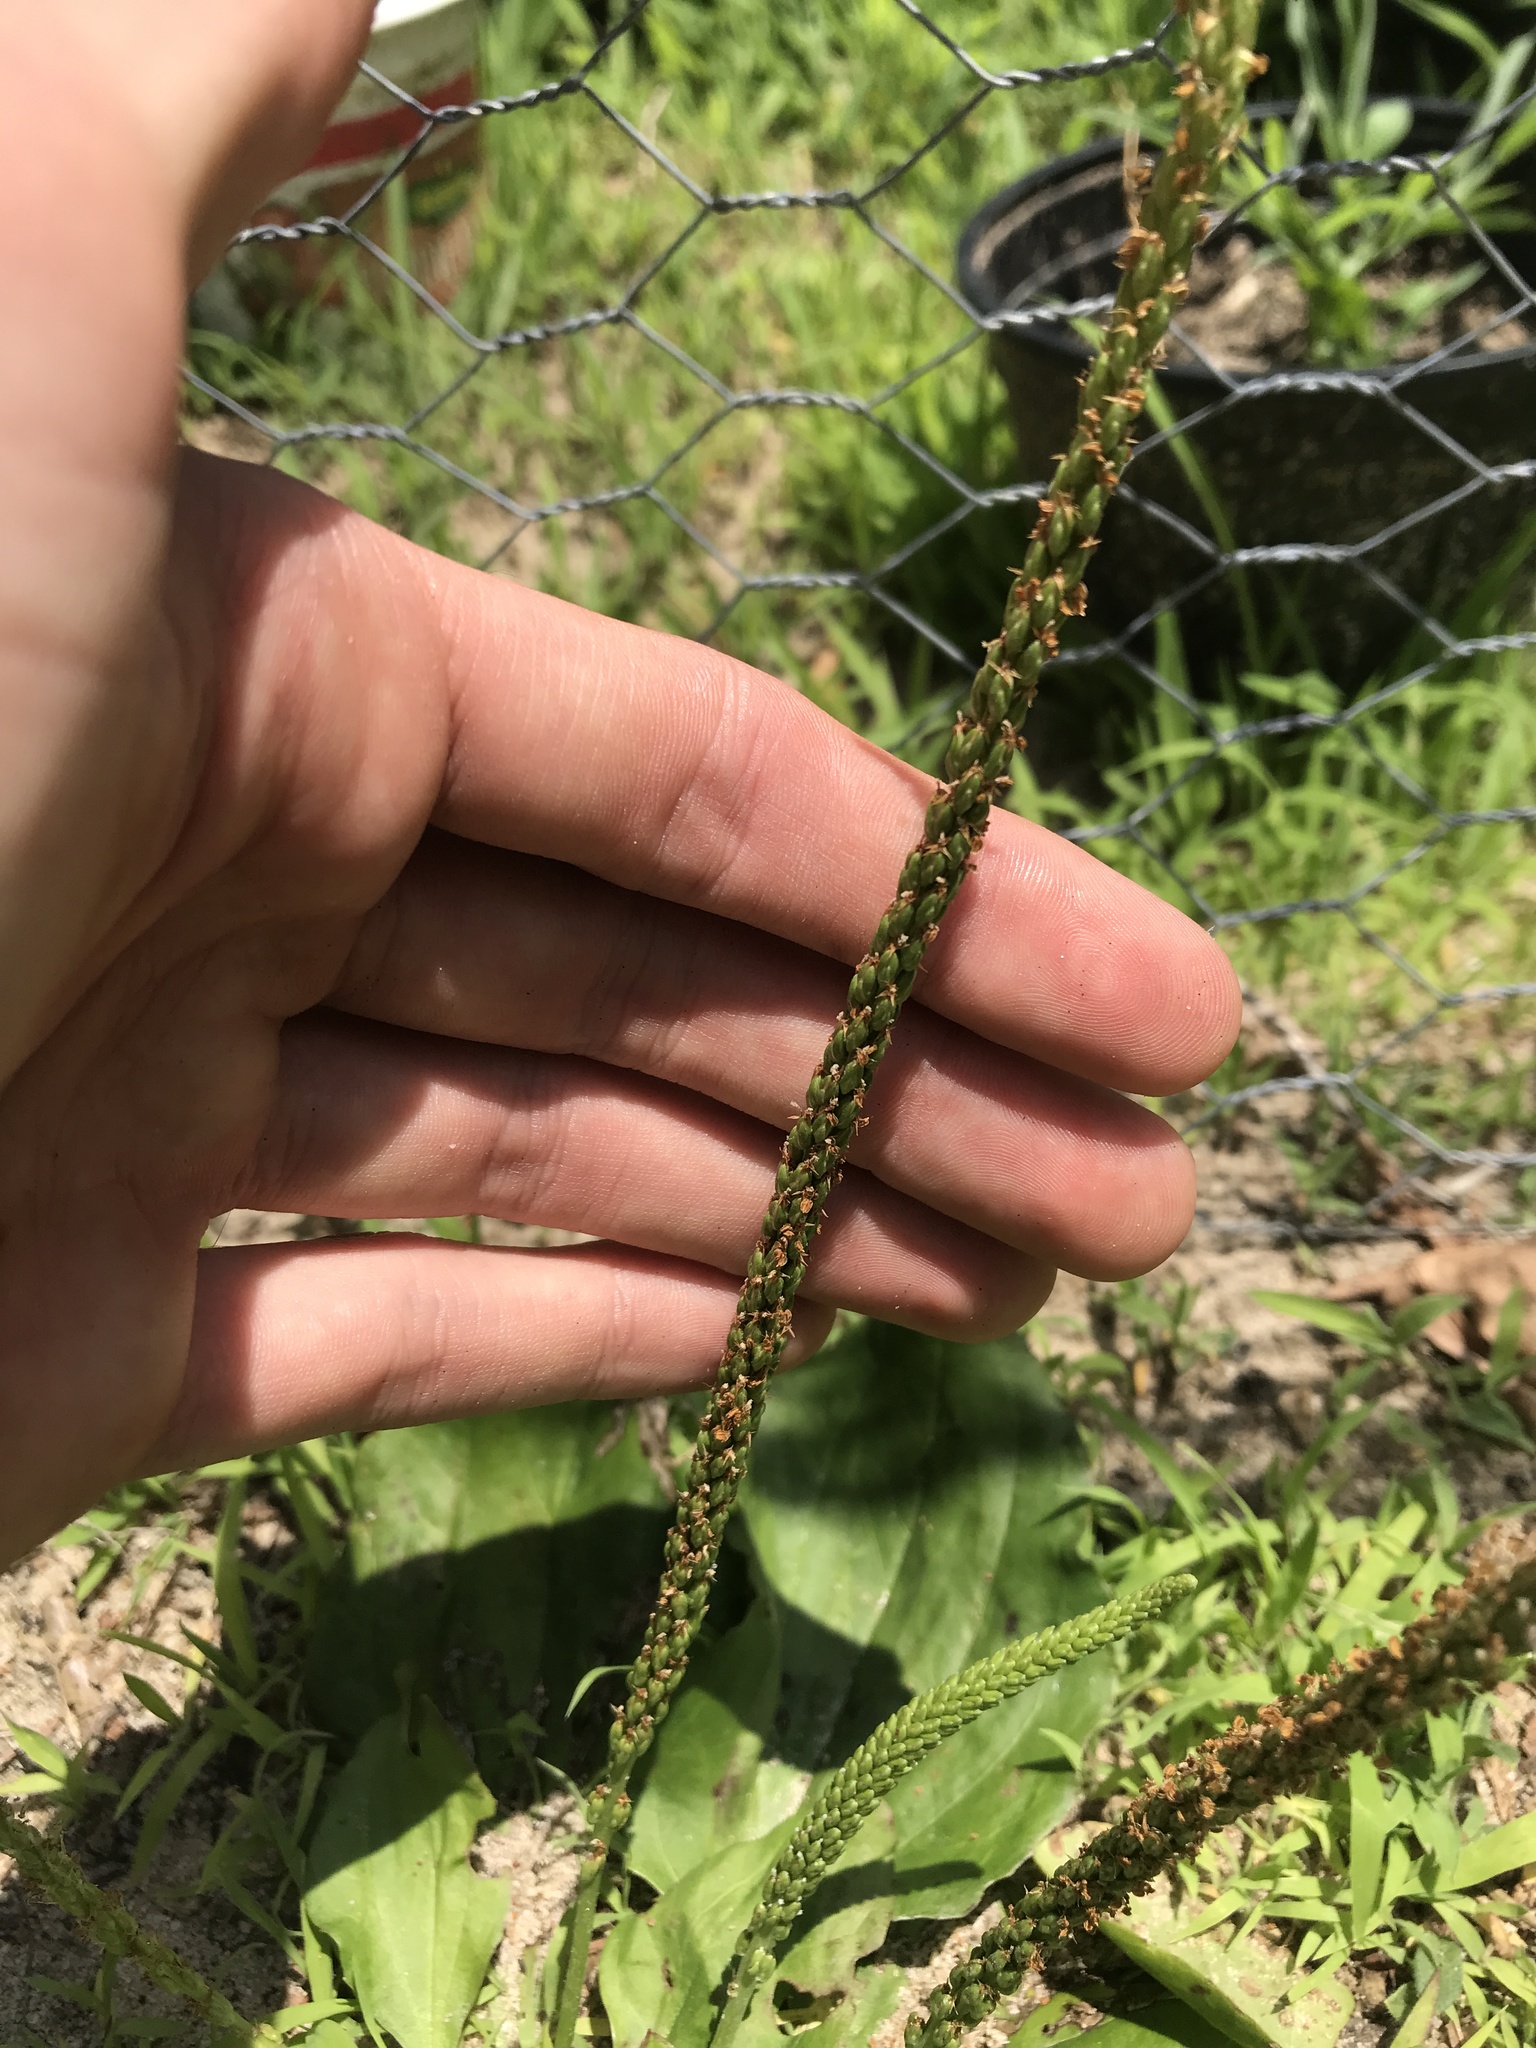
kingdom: Plantae
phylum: Tracheophyta
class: Magnoliopsida
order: Lamiales
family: Plantaginaceae
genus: Plantago
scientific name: Plantago major
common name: Common plantain
